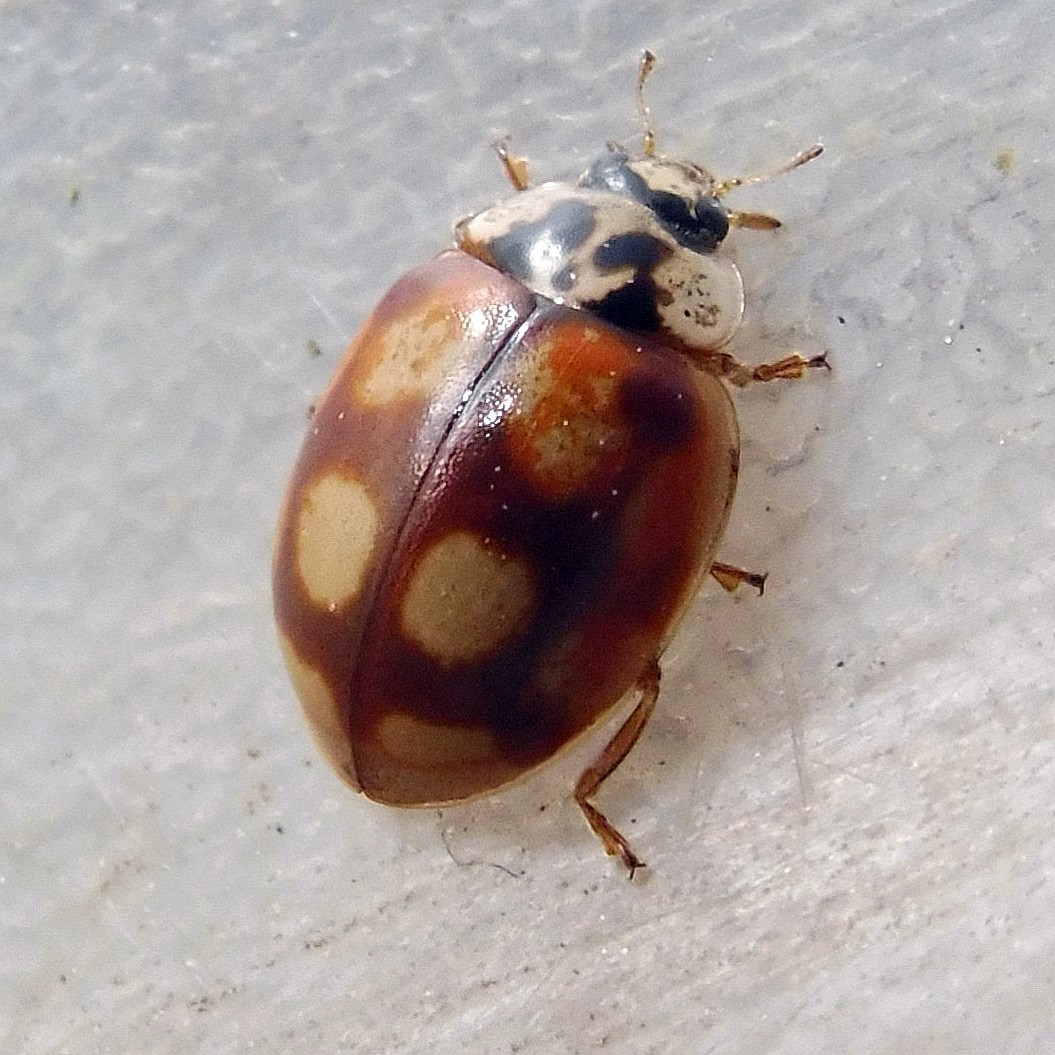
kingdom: Animalia
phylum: Arthropoda
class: Insecta
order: Coleoptera
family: Coccinellidae
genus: Adalia
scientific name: Adalia decempunctata
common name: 10-spot ladybird
